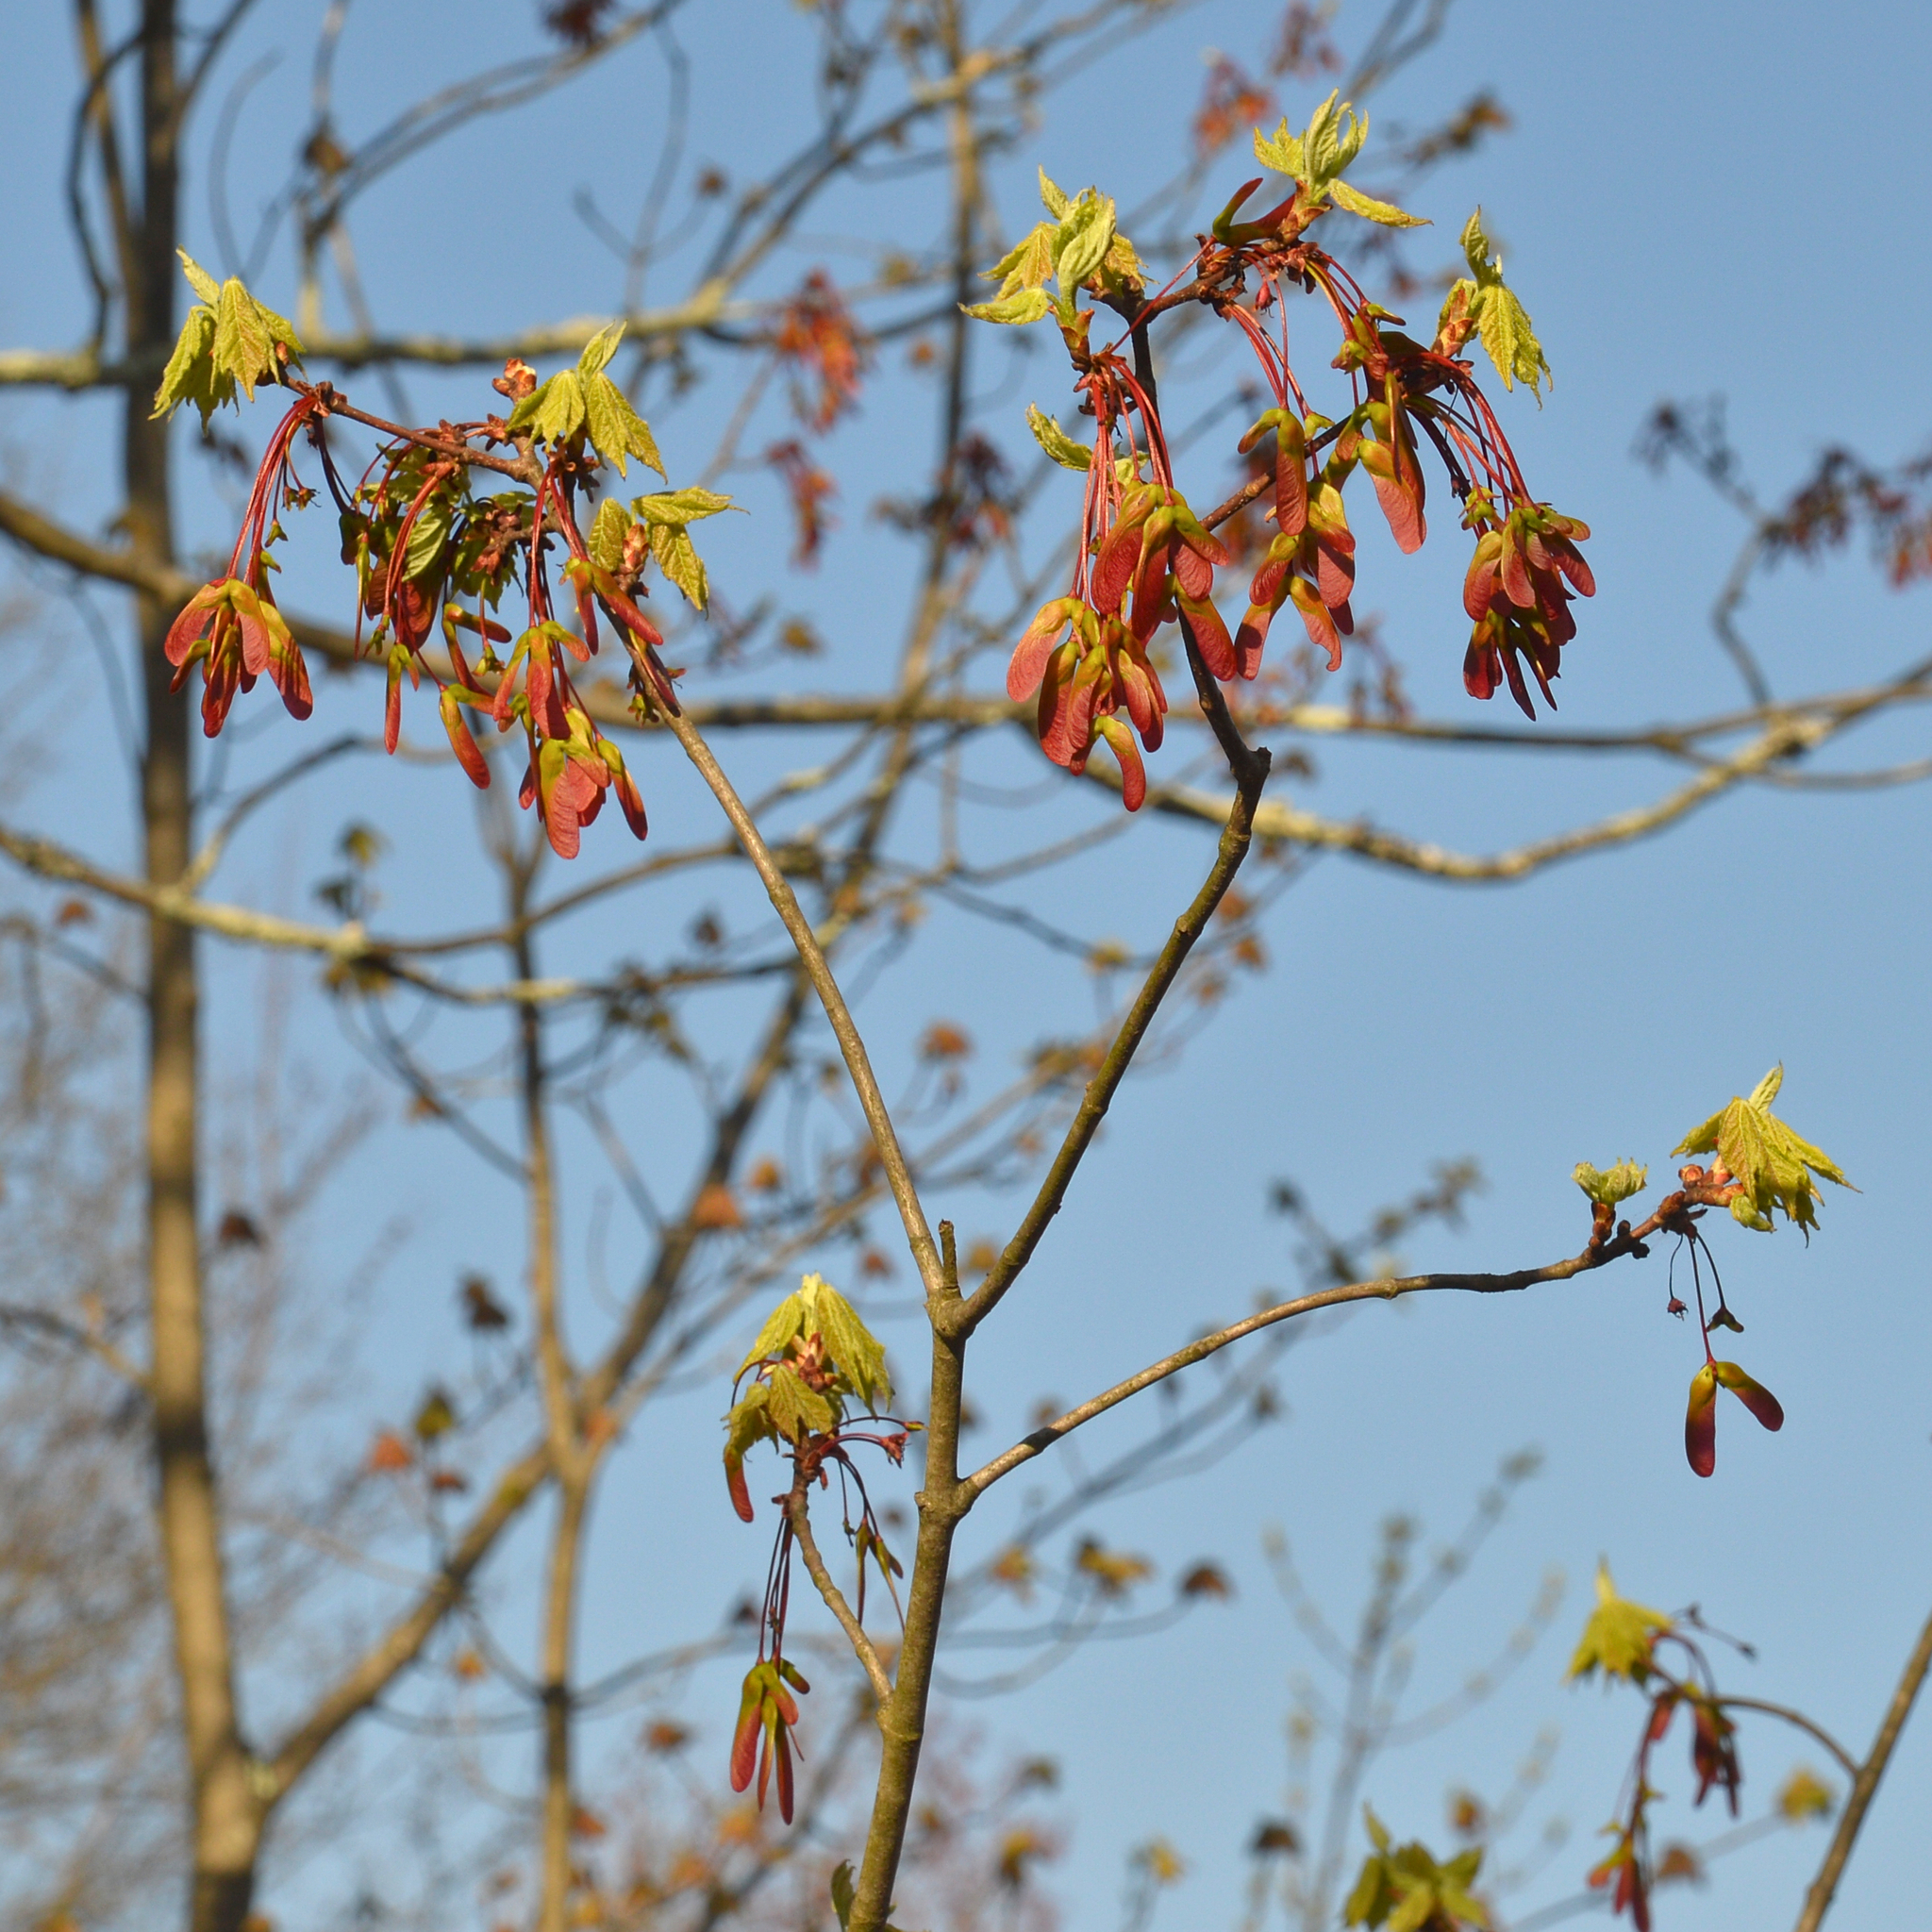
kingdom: Plantae
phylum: Tracheophyta
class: Magnoliopsida
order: Sapindales
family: Sapindaceae
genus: Acer
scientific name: Acer rubrum
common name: Red maple
